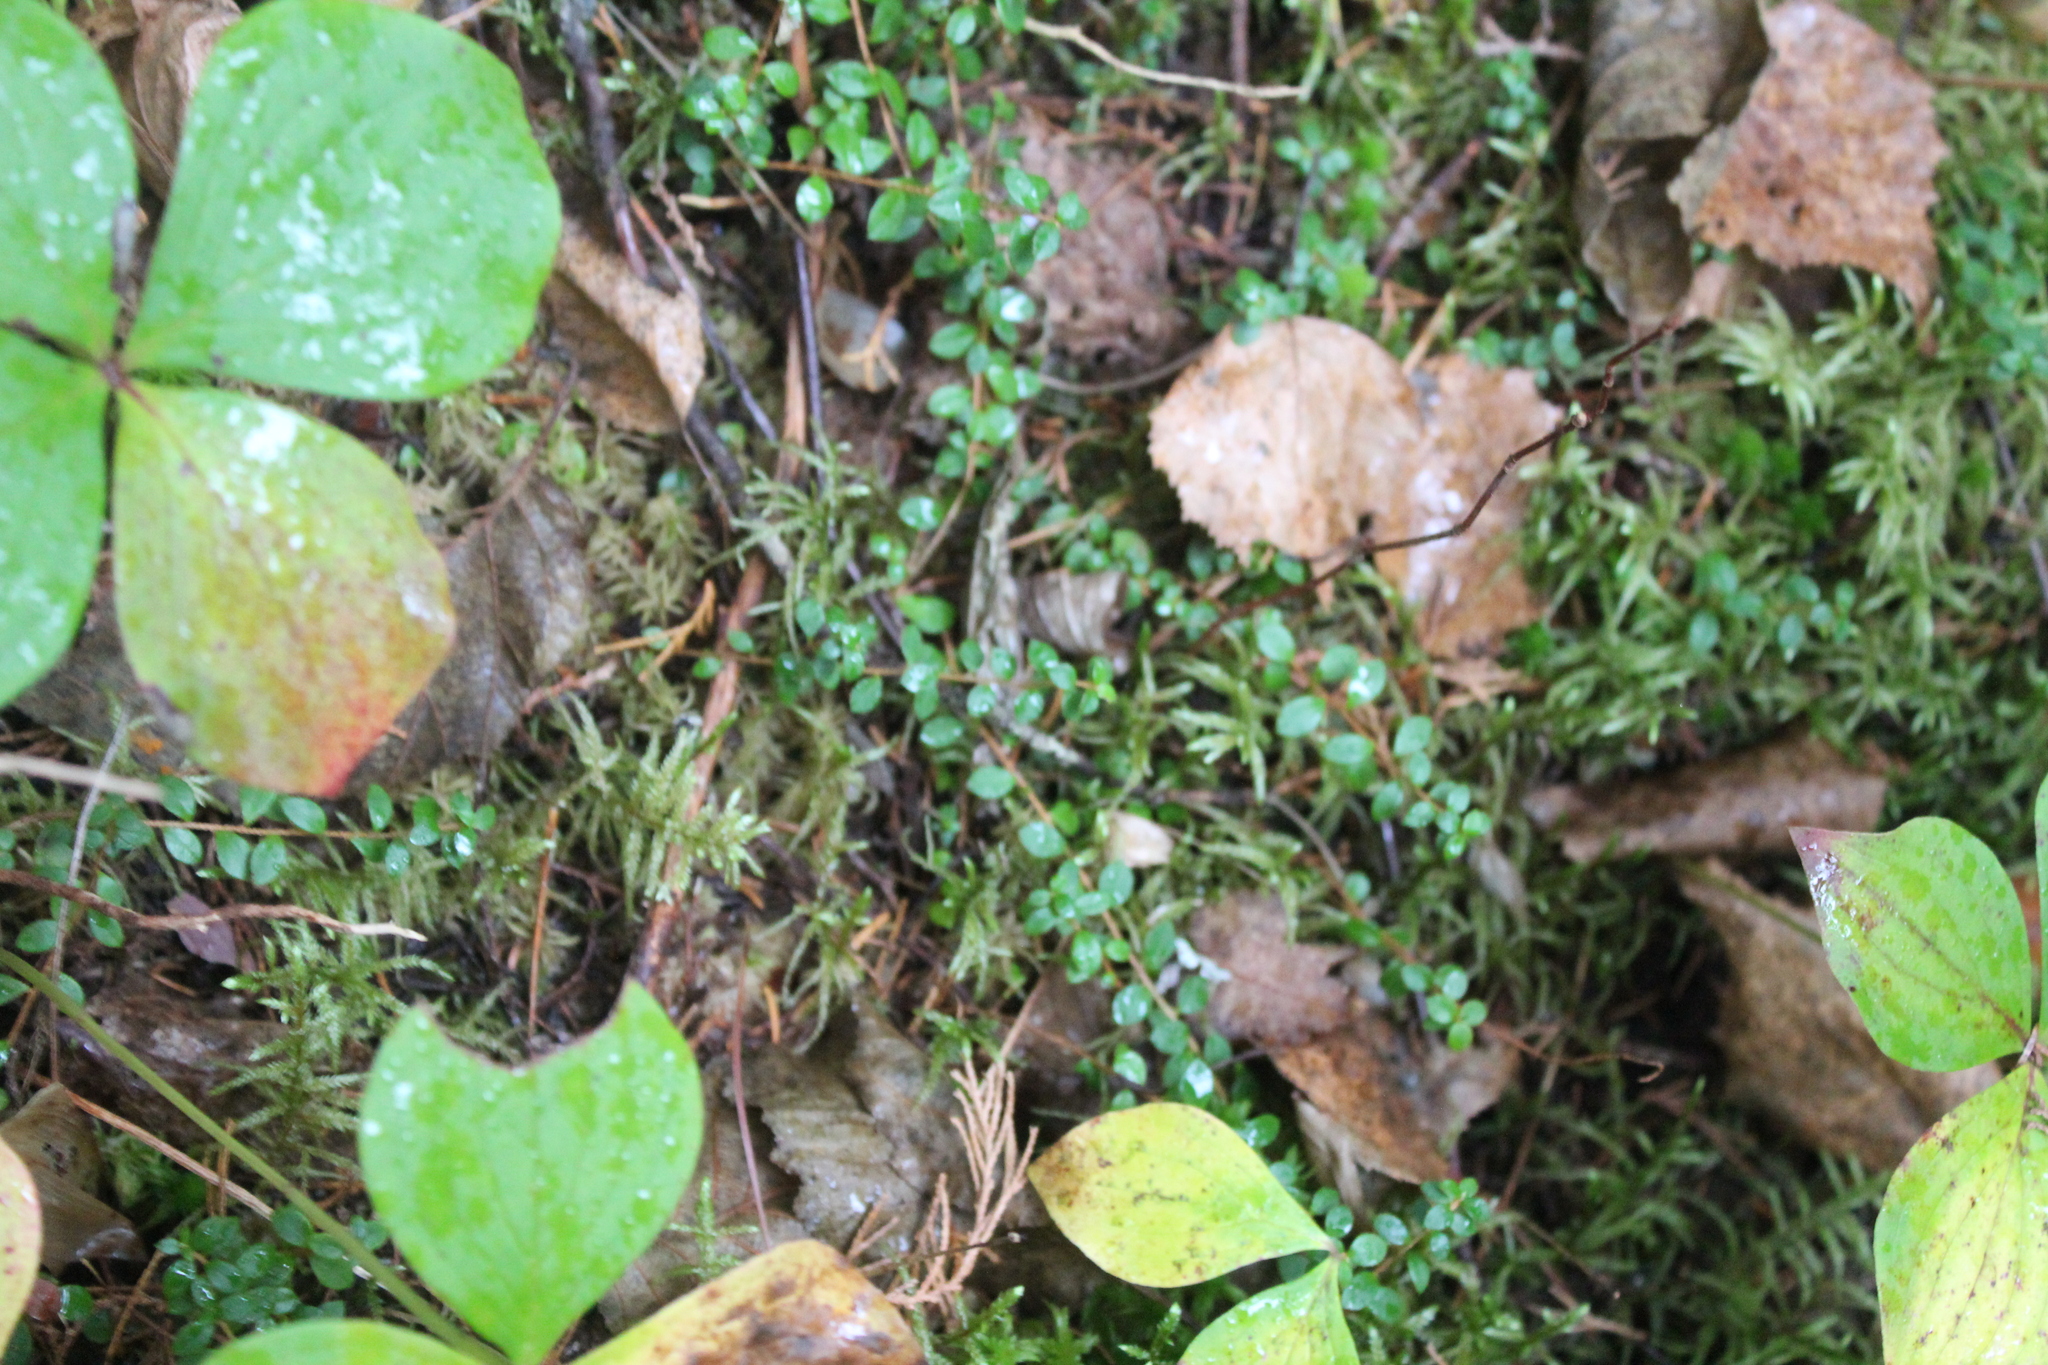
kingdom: Plantae
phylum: Tracheophyta
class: Magnoliopsida
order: Ericales
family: Ericaceae
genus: Gaultheria
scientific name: Gaultheria hispidula
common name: Cancer wintergreen
